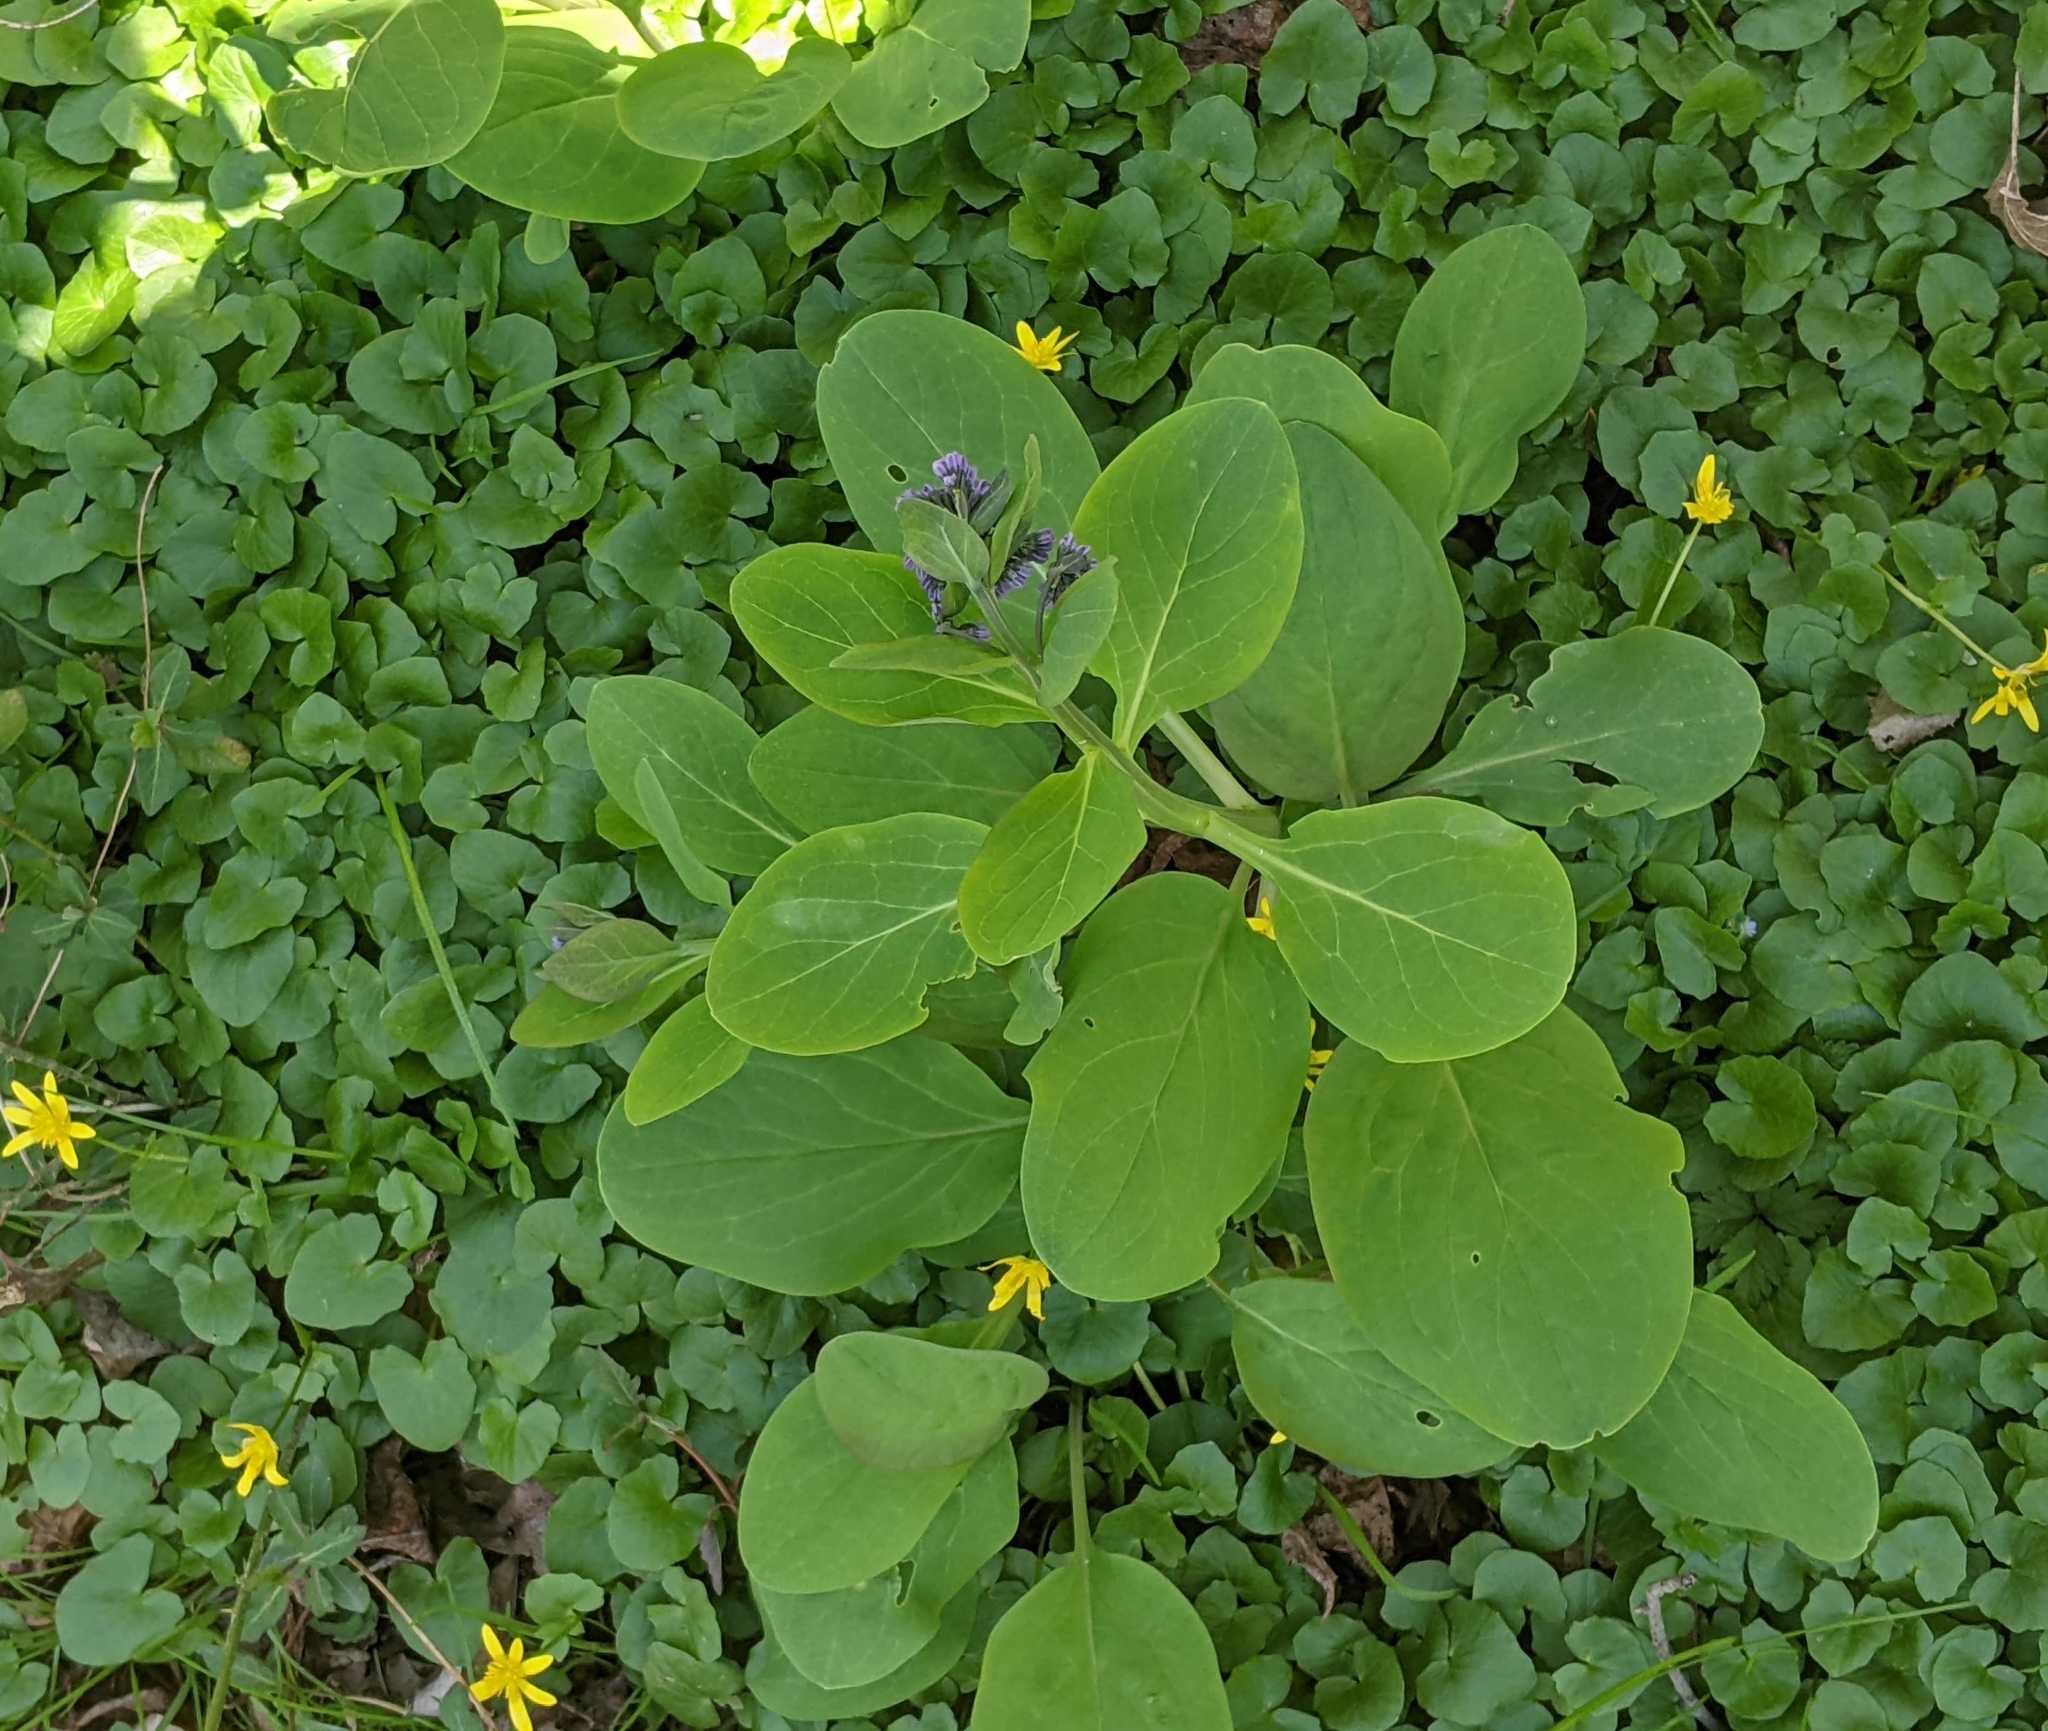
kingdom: Plantae
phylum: Tracheophyta
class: Magnoliopsida
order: Boraginales
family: Boraginaceae
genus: Mertensia
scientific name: Mertensia virginica
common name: Virginia bluebells
